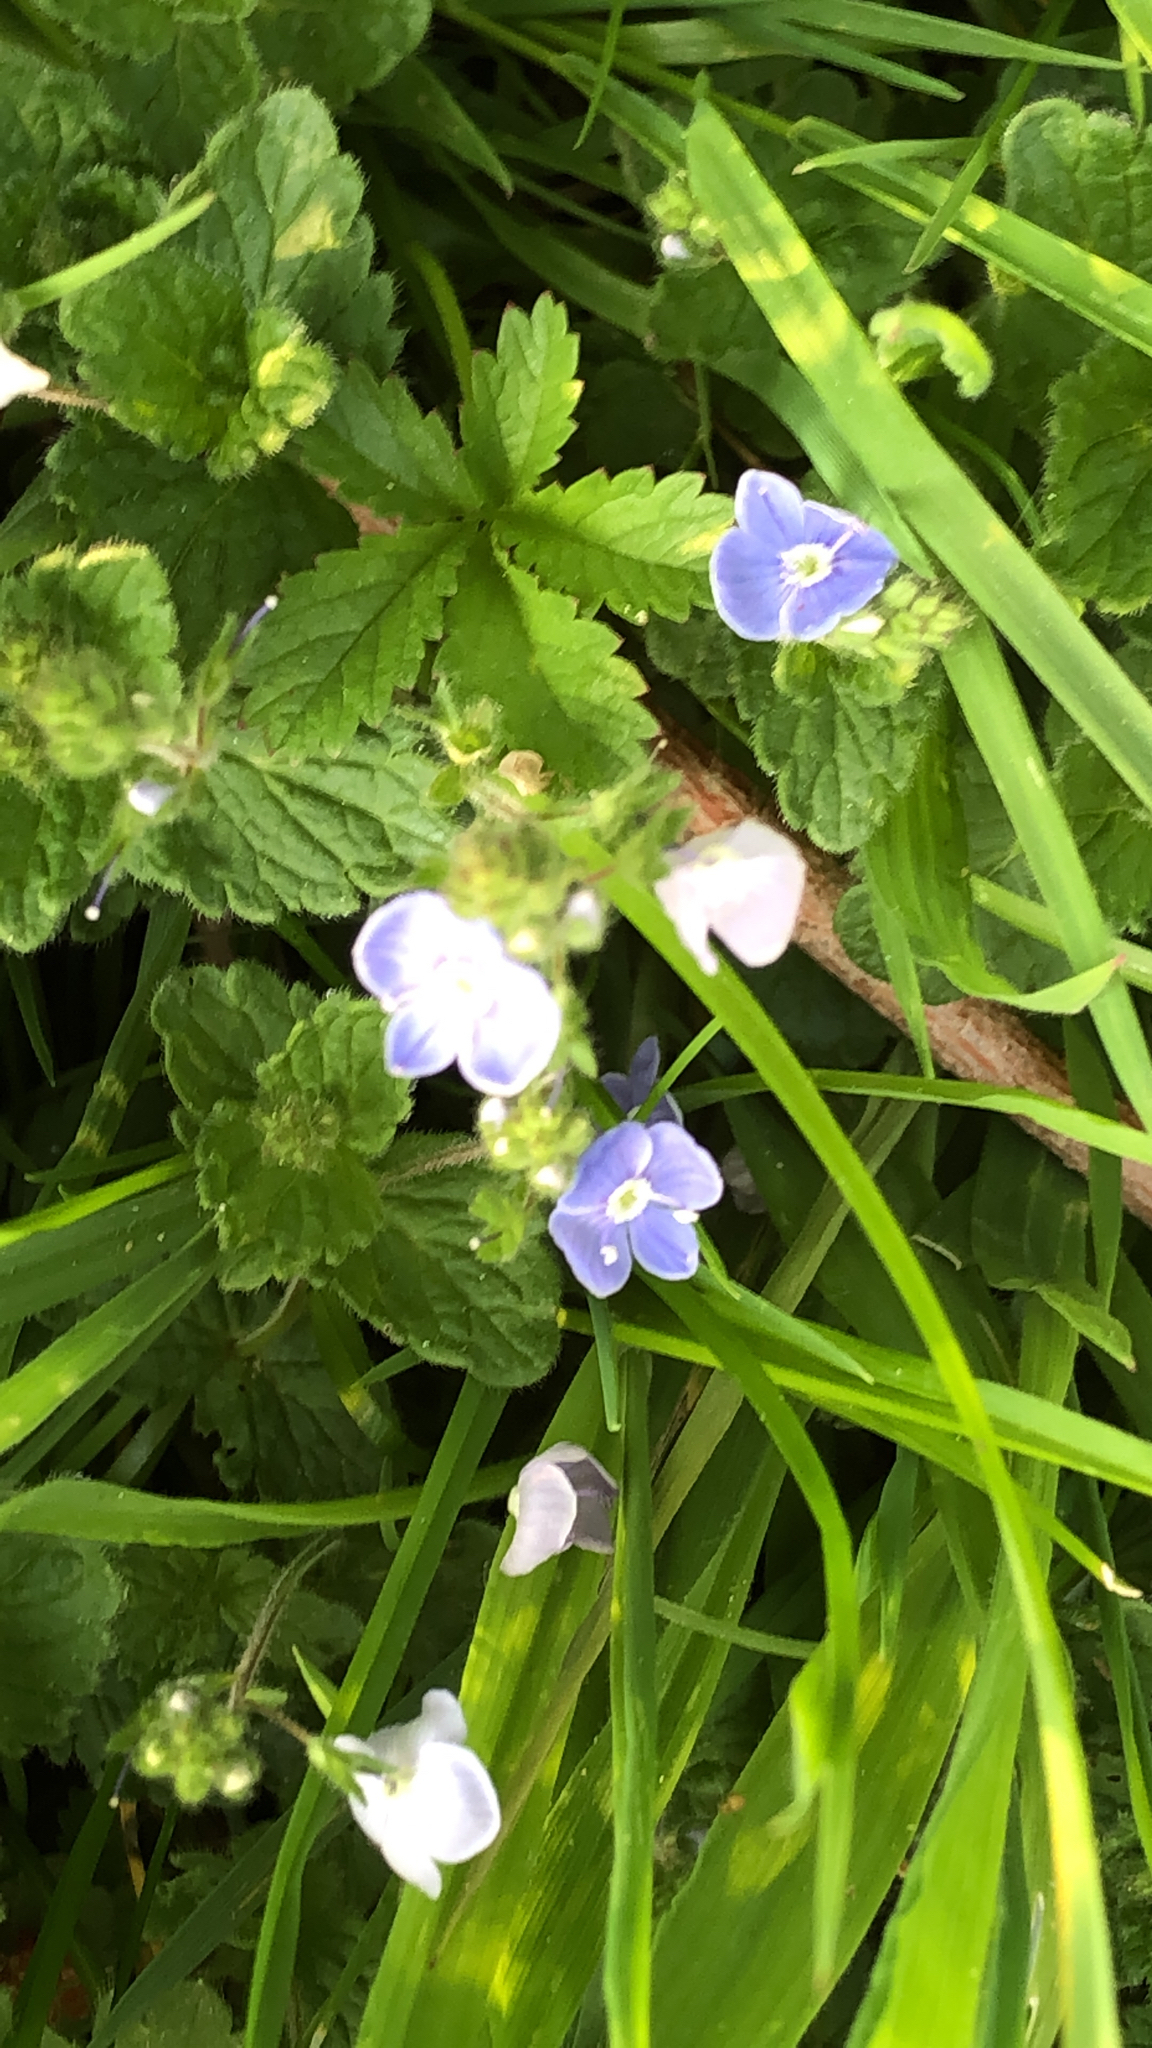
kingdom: Plantae
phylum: Tracheophyta
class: Magnoliopsida
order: Lamiales
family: Plantaginaceae
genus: Veronica
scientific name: Veronica chamaedrys
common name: Germander speedwell
